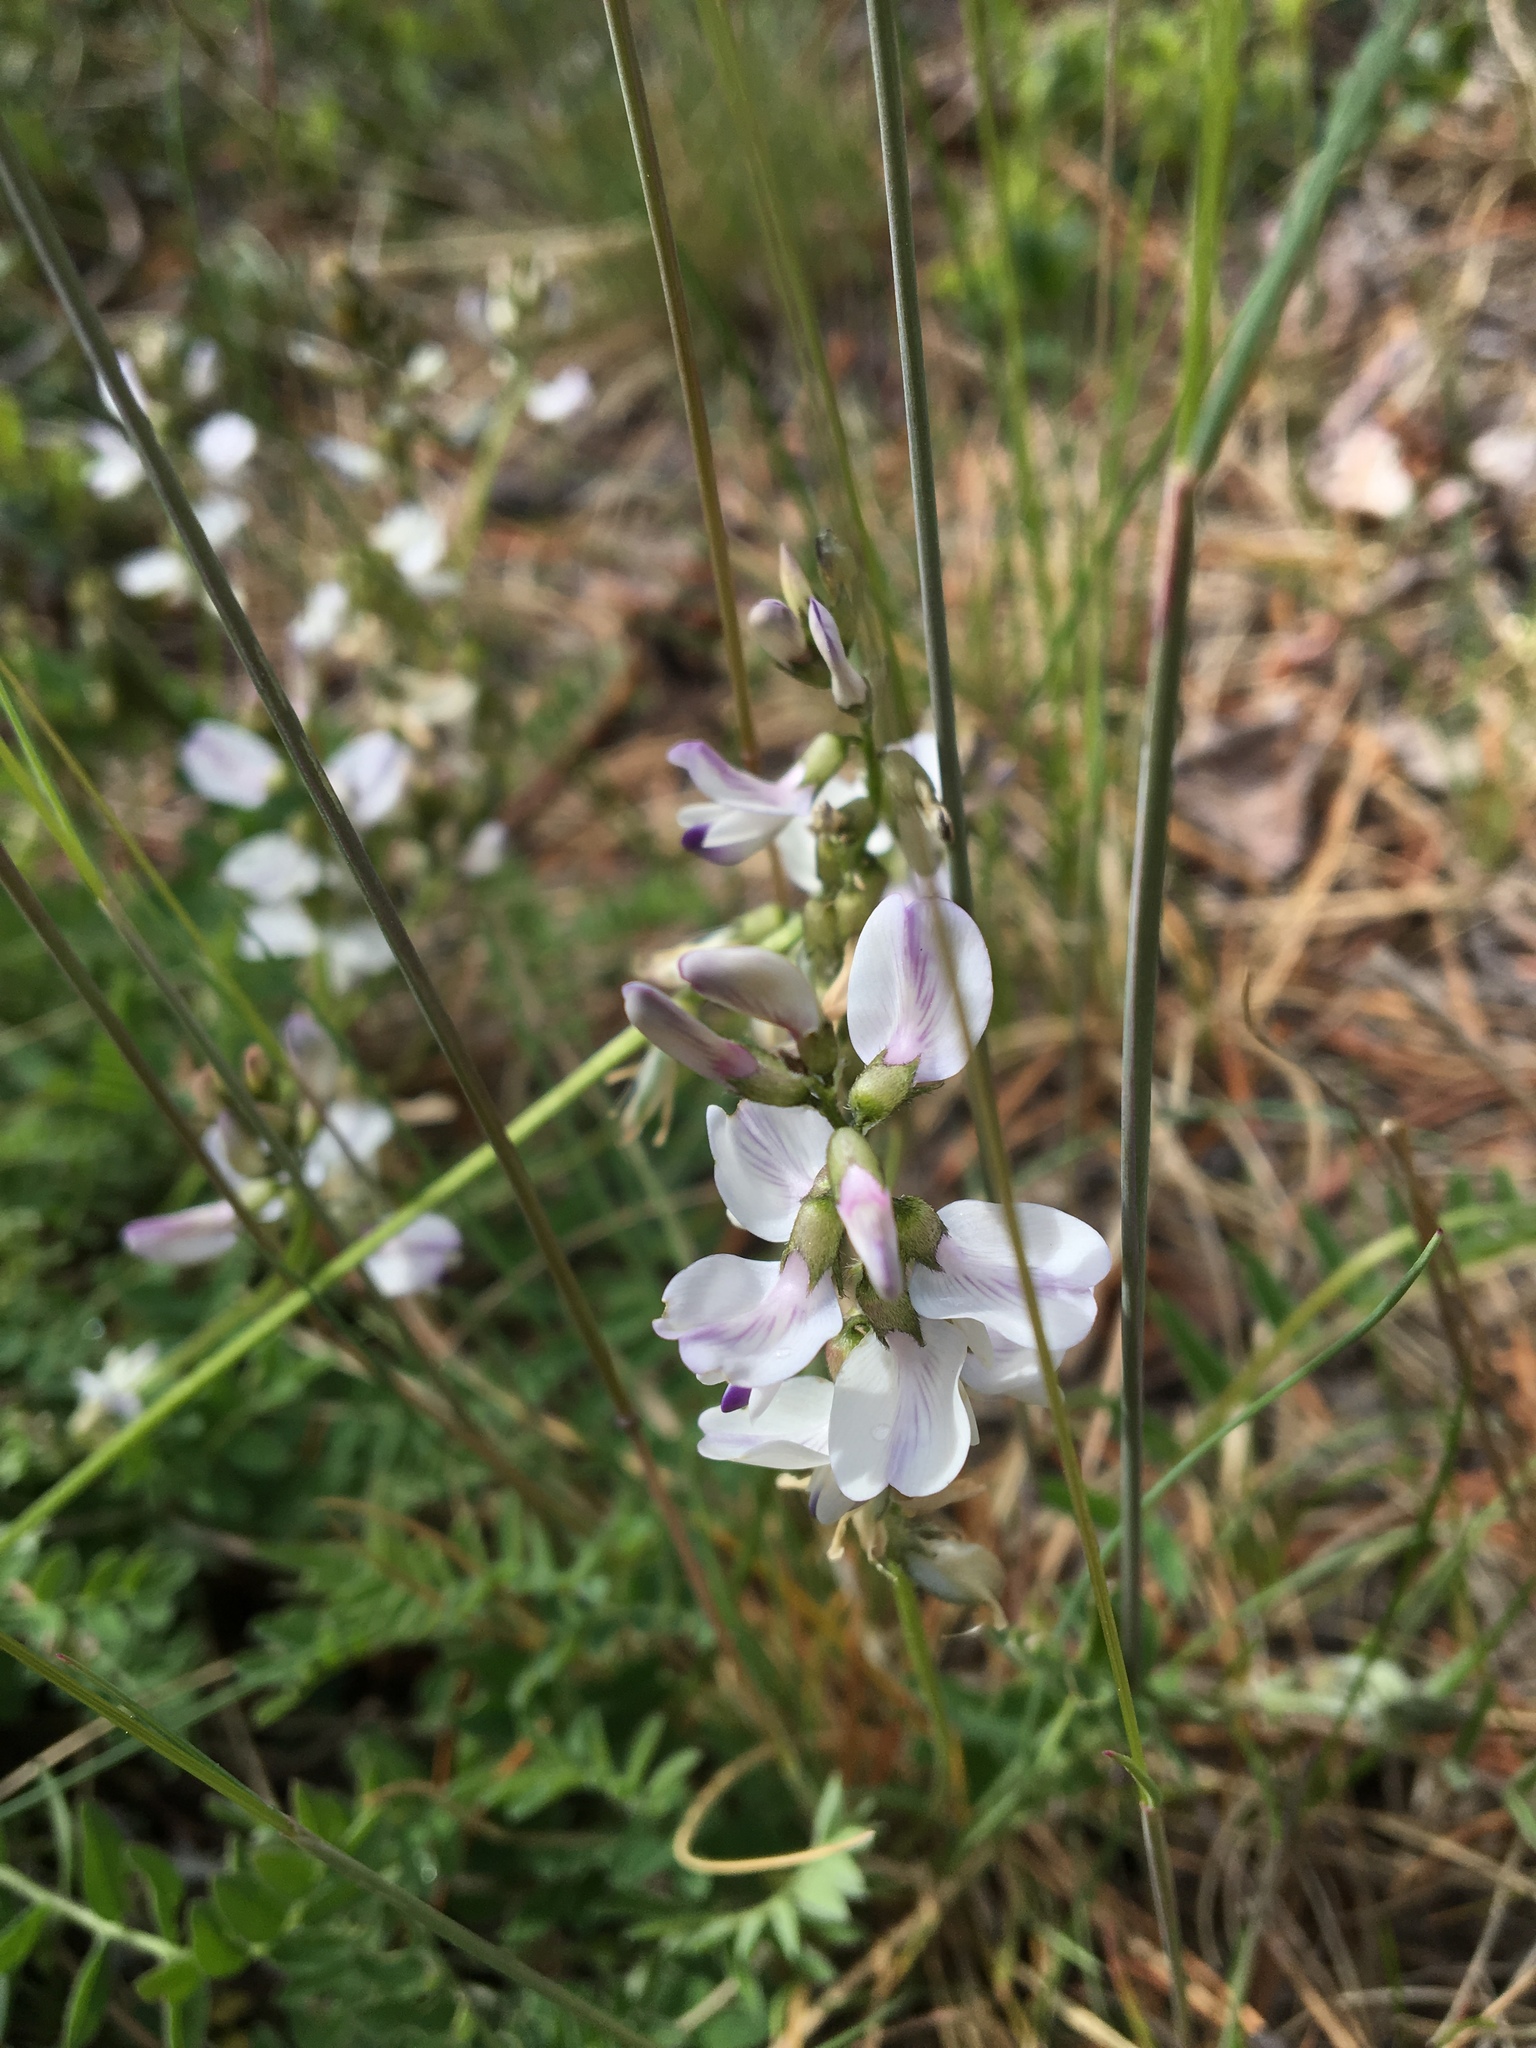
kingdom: Plantae
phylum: Tracheophyta
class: Magnoliopsida
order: Fabales
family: Fabaceae
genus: Astragalus
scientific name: Astragalus alpinus
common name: Alpine milk-vetch
